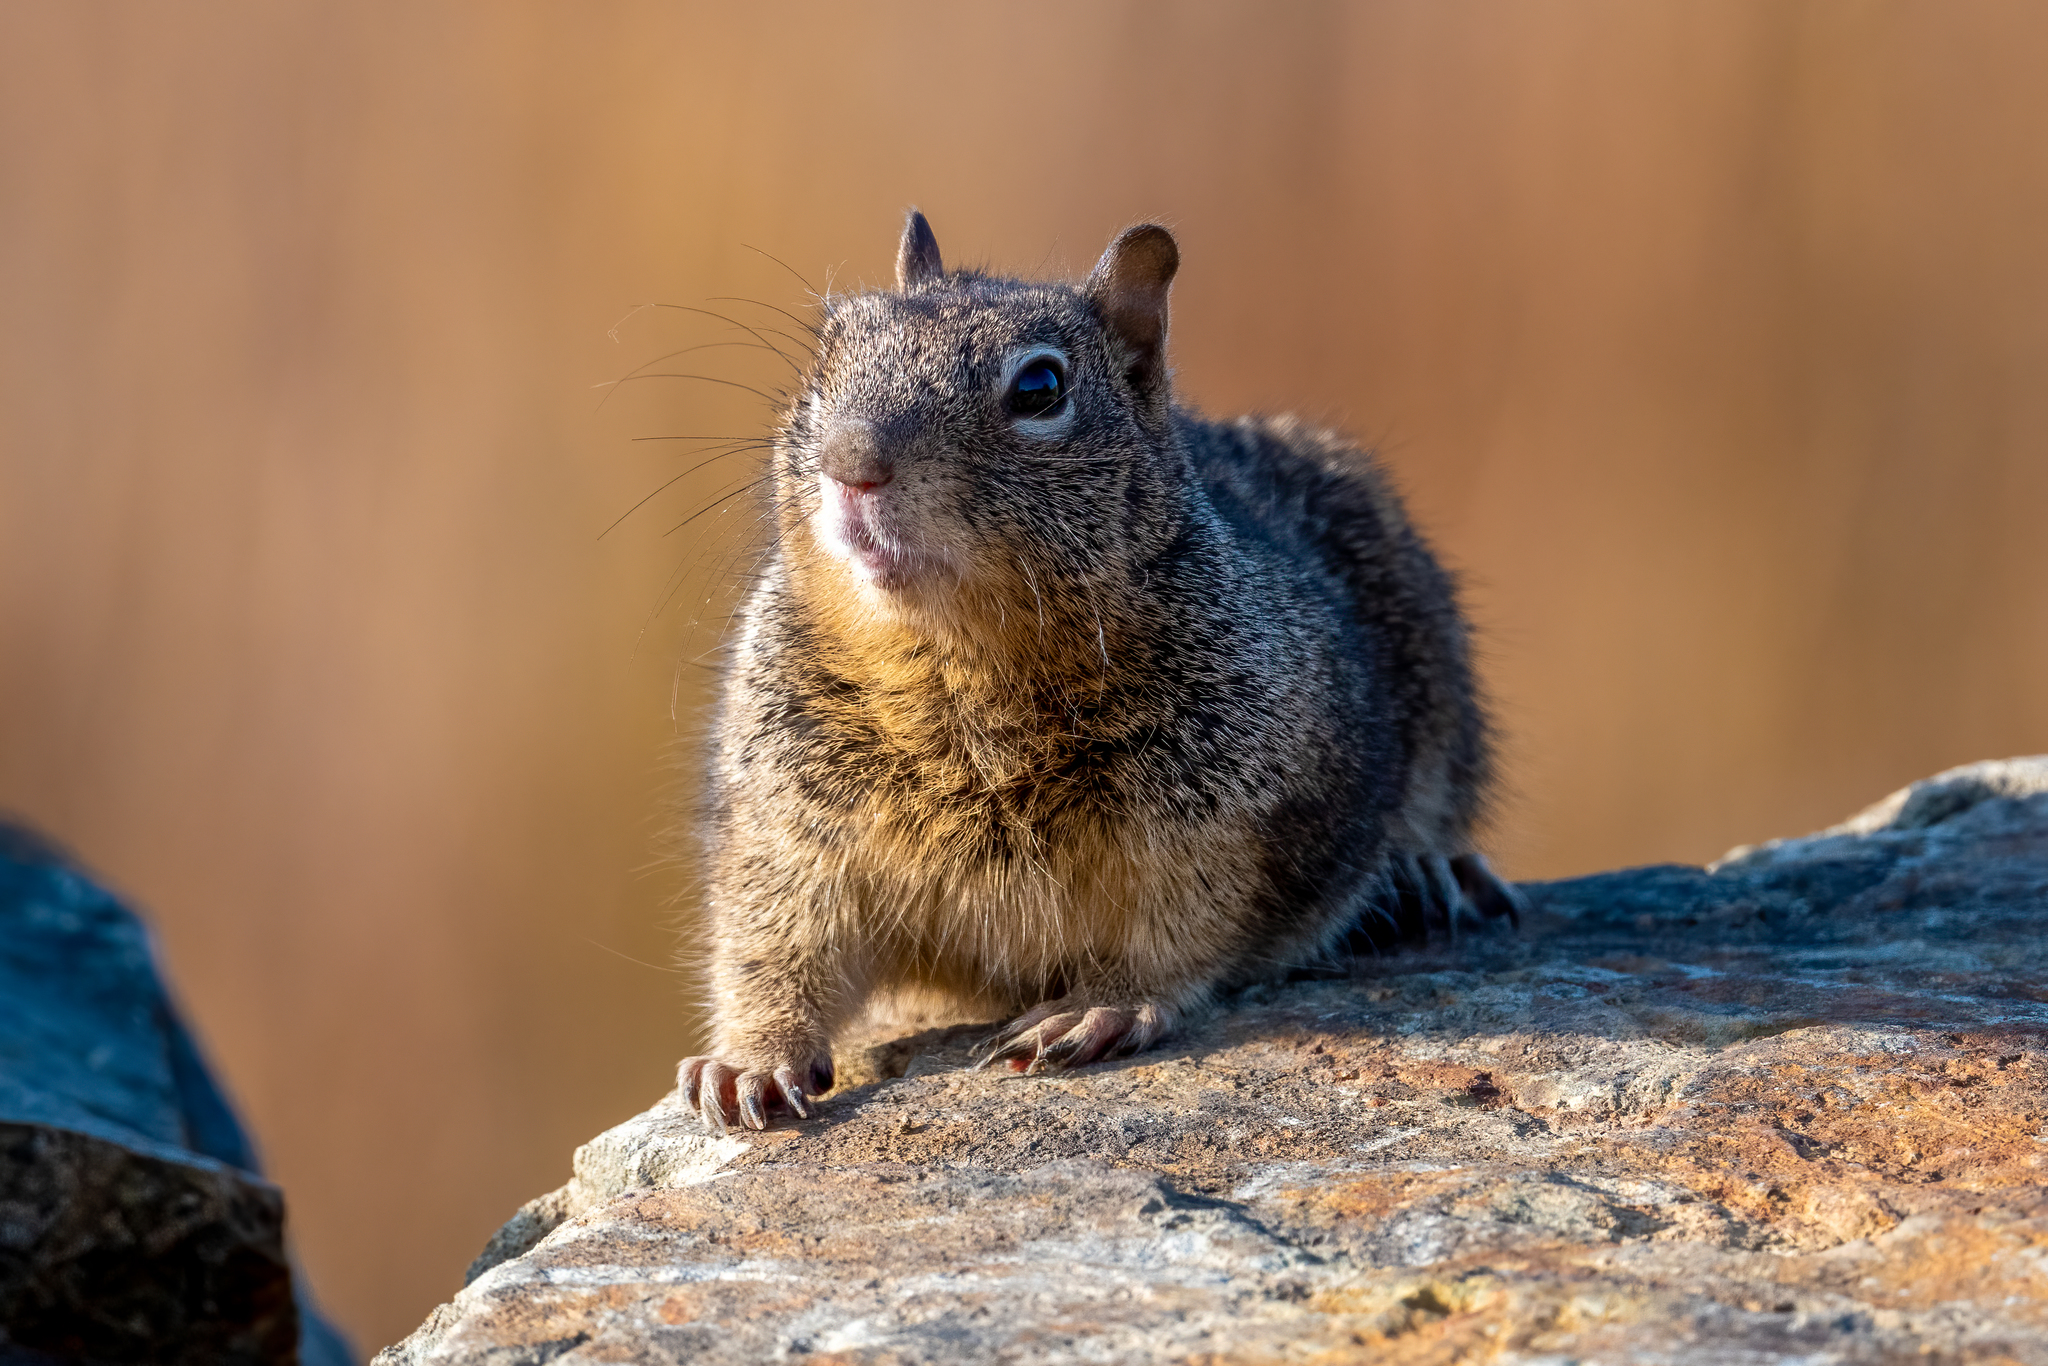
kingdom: Animalia
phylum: Chordata
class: Mammalia
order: Rodentia
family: Sciuridae
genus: Otospermophilus
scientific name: Otospermophilus beecheyi
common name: California ground squirrel
